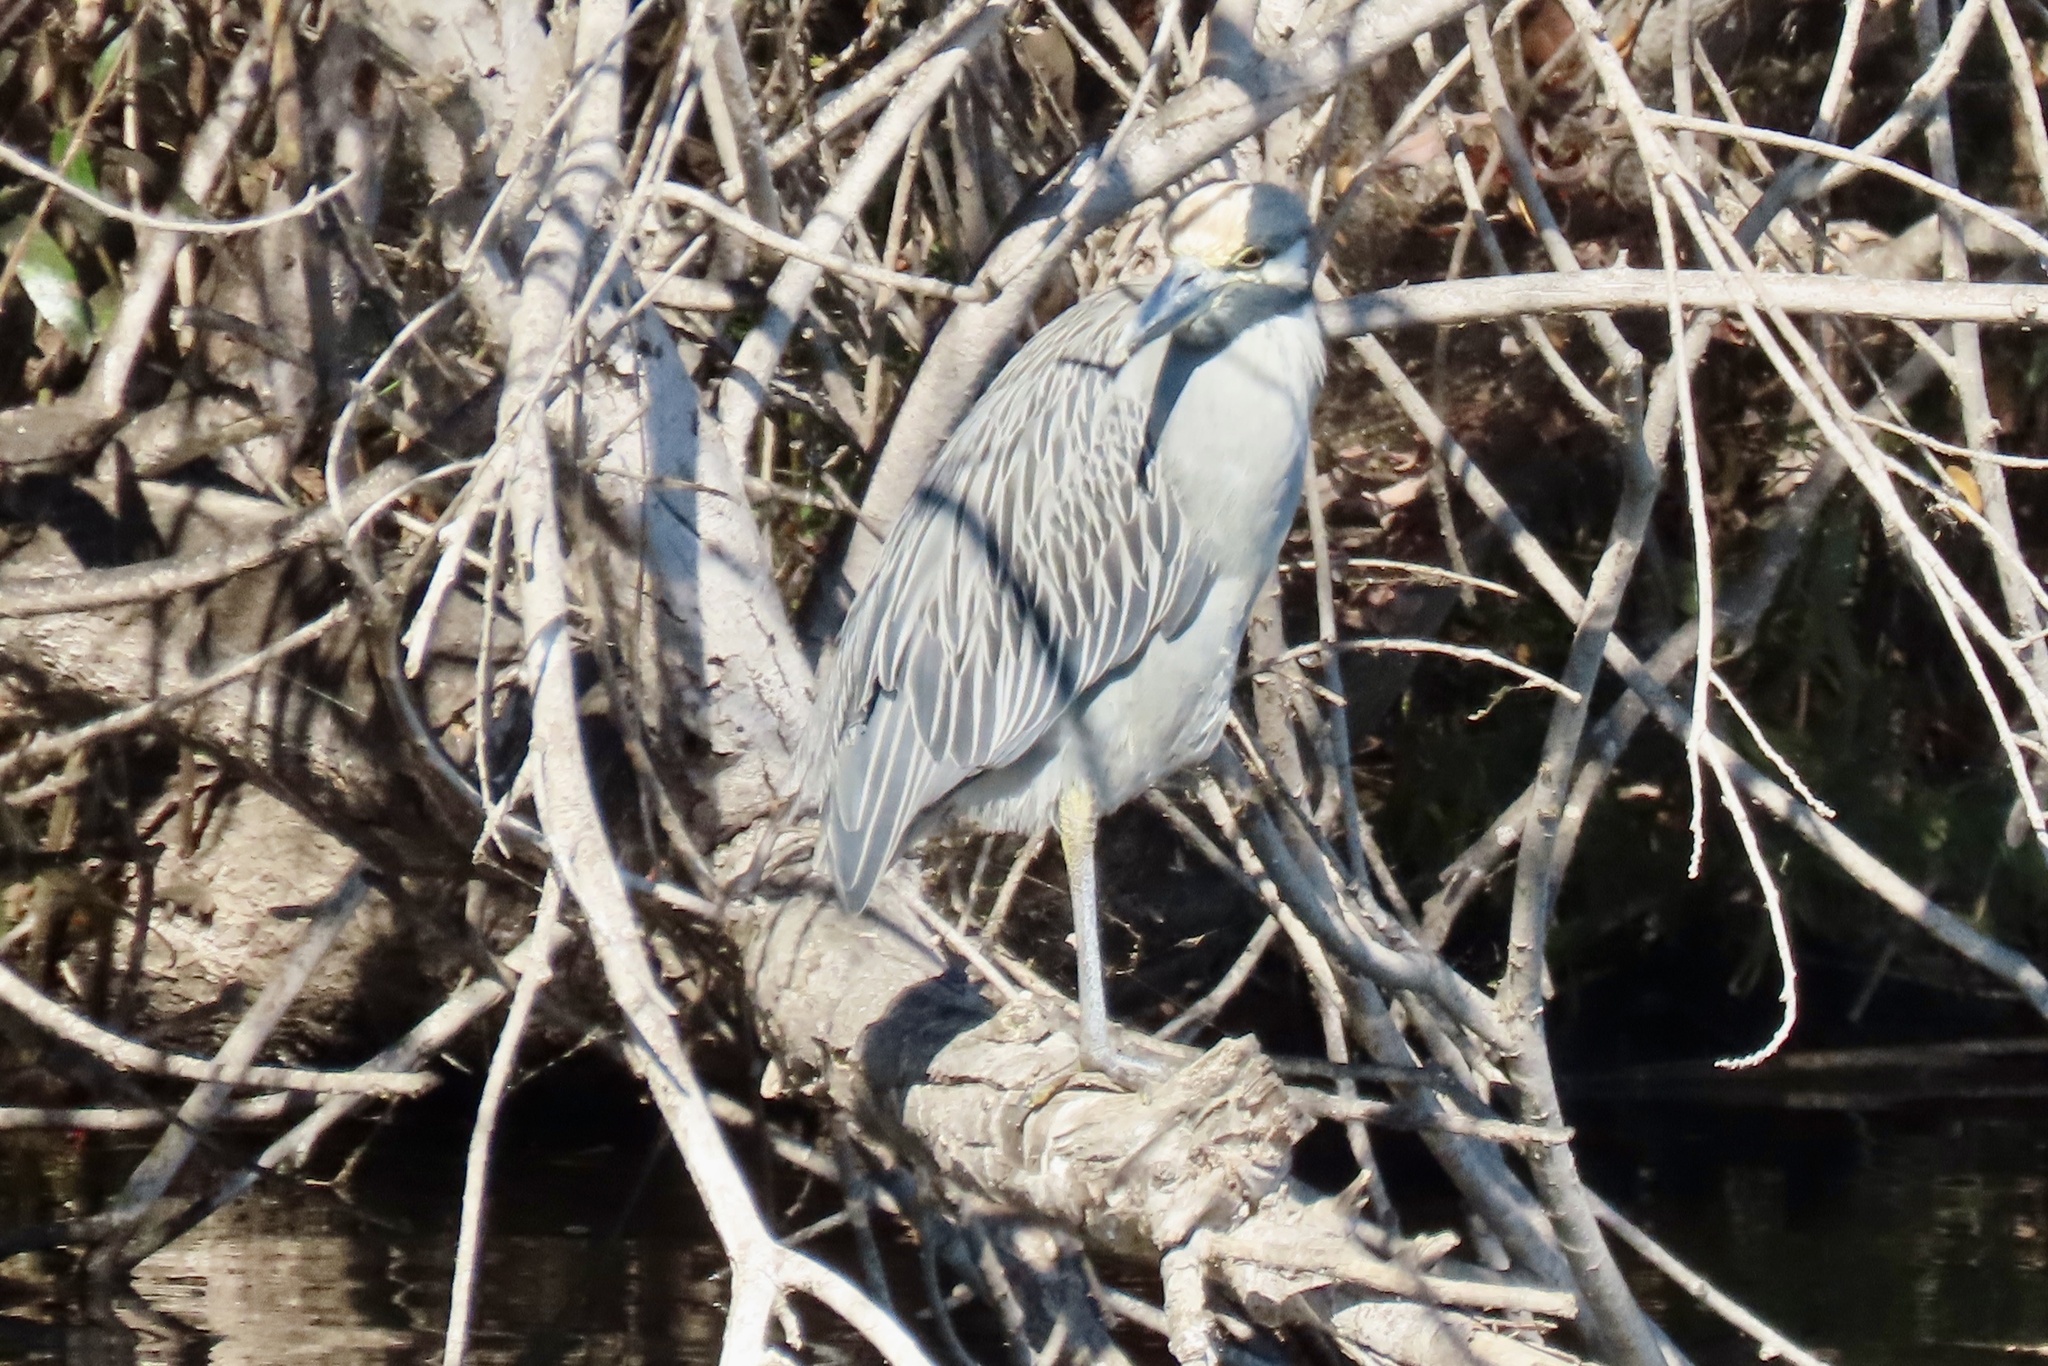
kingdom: Animalia
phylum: Chordata
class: Aves
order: Pelecaniformes
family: Ardeidae
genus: Nyctanassa
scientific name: Nyctanassa violacea
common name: Yellow-crowned night heron
